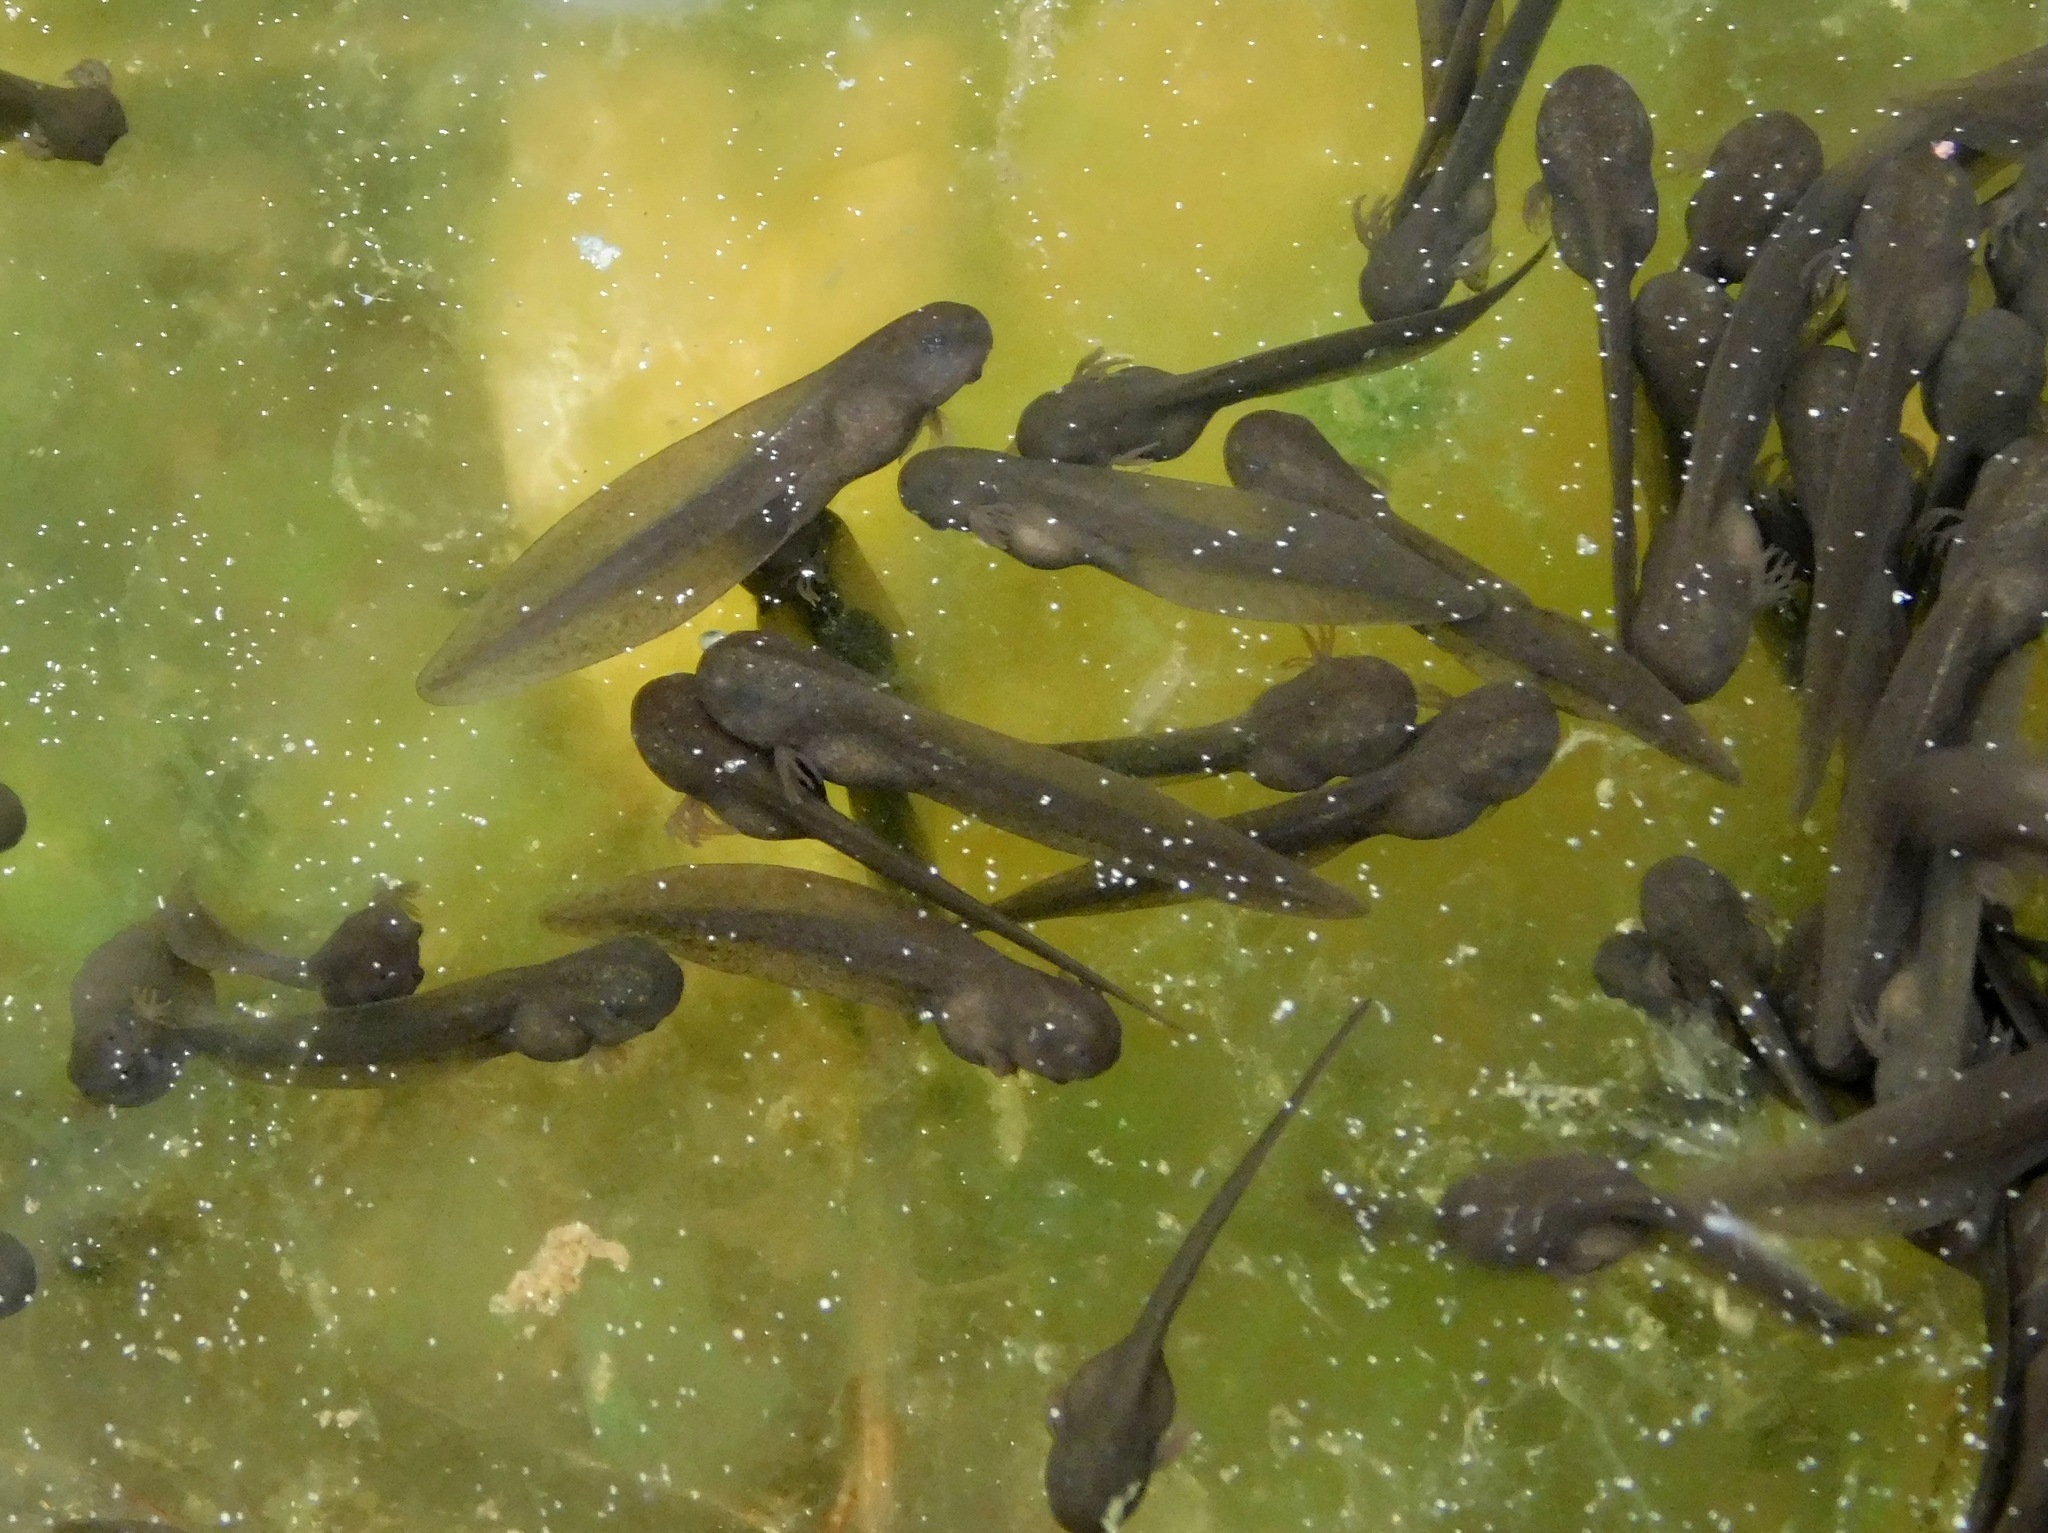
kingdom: Animalia
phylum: Chordata
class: Amphibia
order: Caudata
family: Ambystomatidae
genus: Ambystoma
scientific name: Ambystoma maculatum
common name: Spotted salamander
